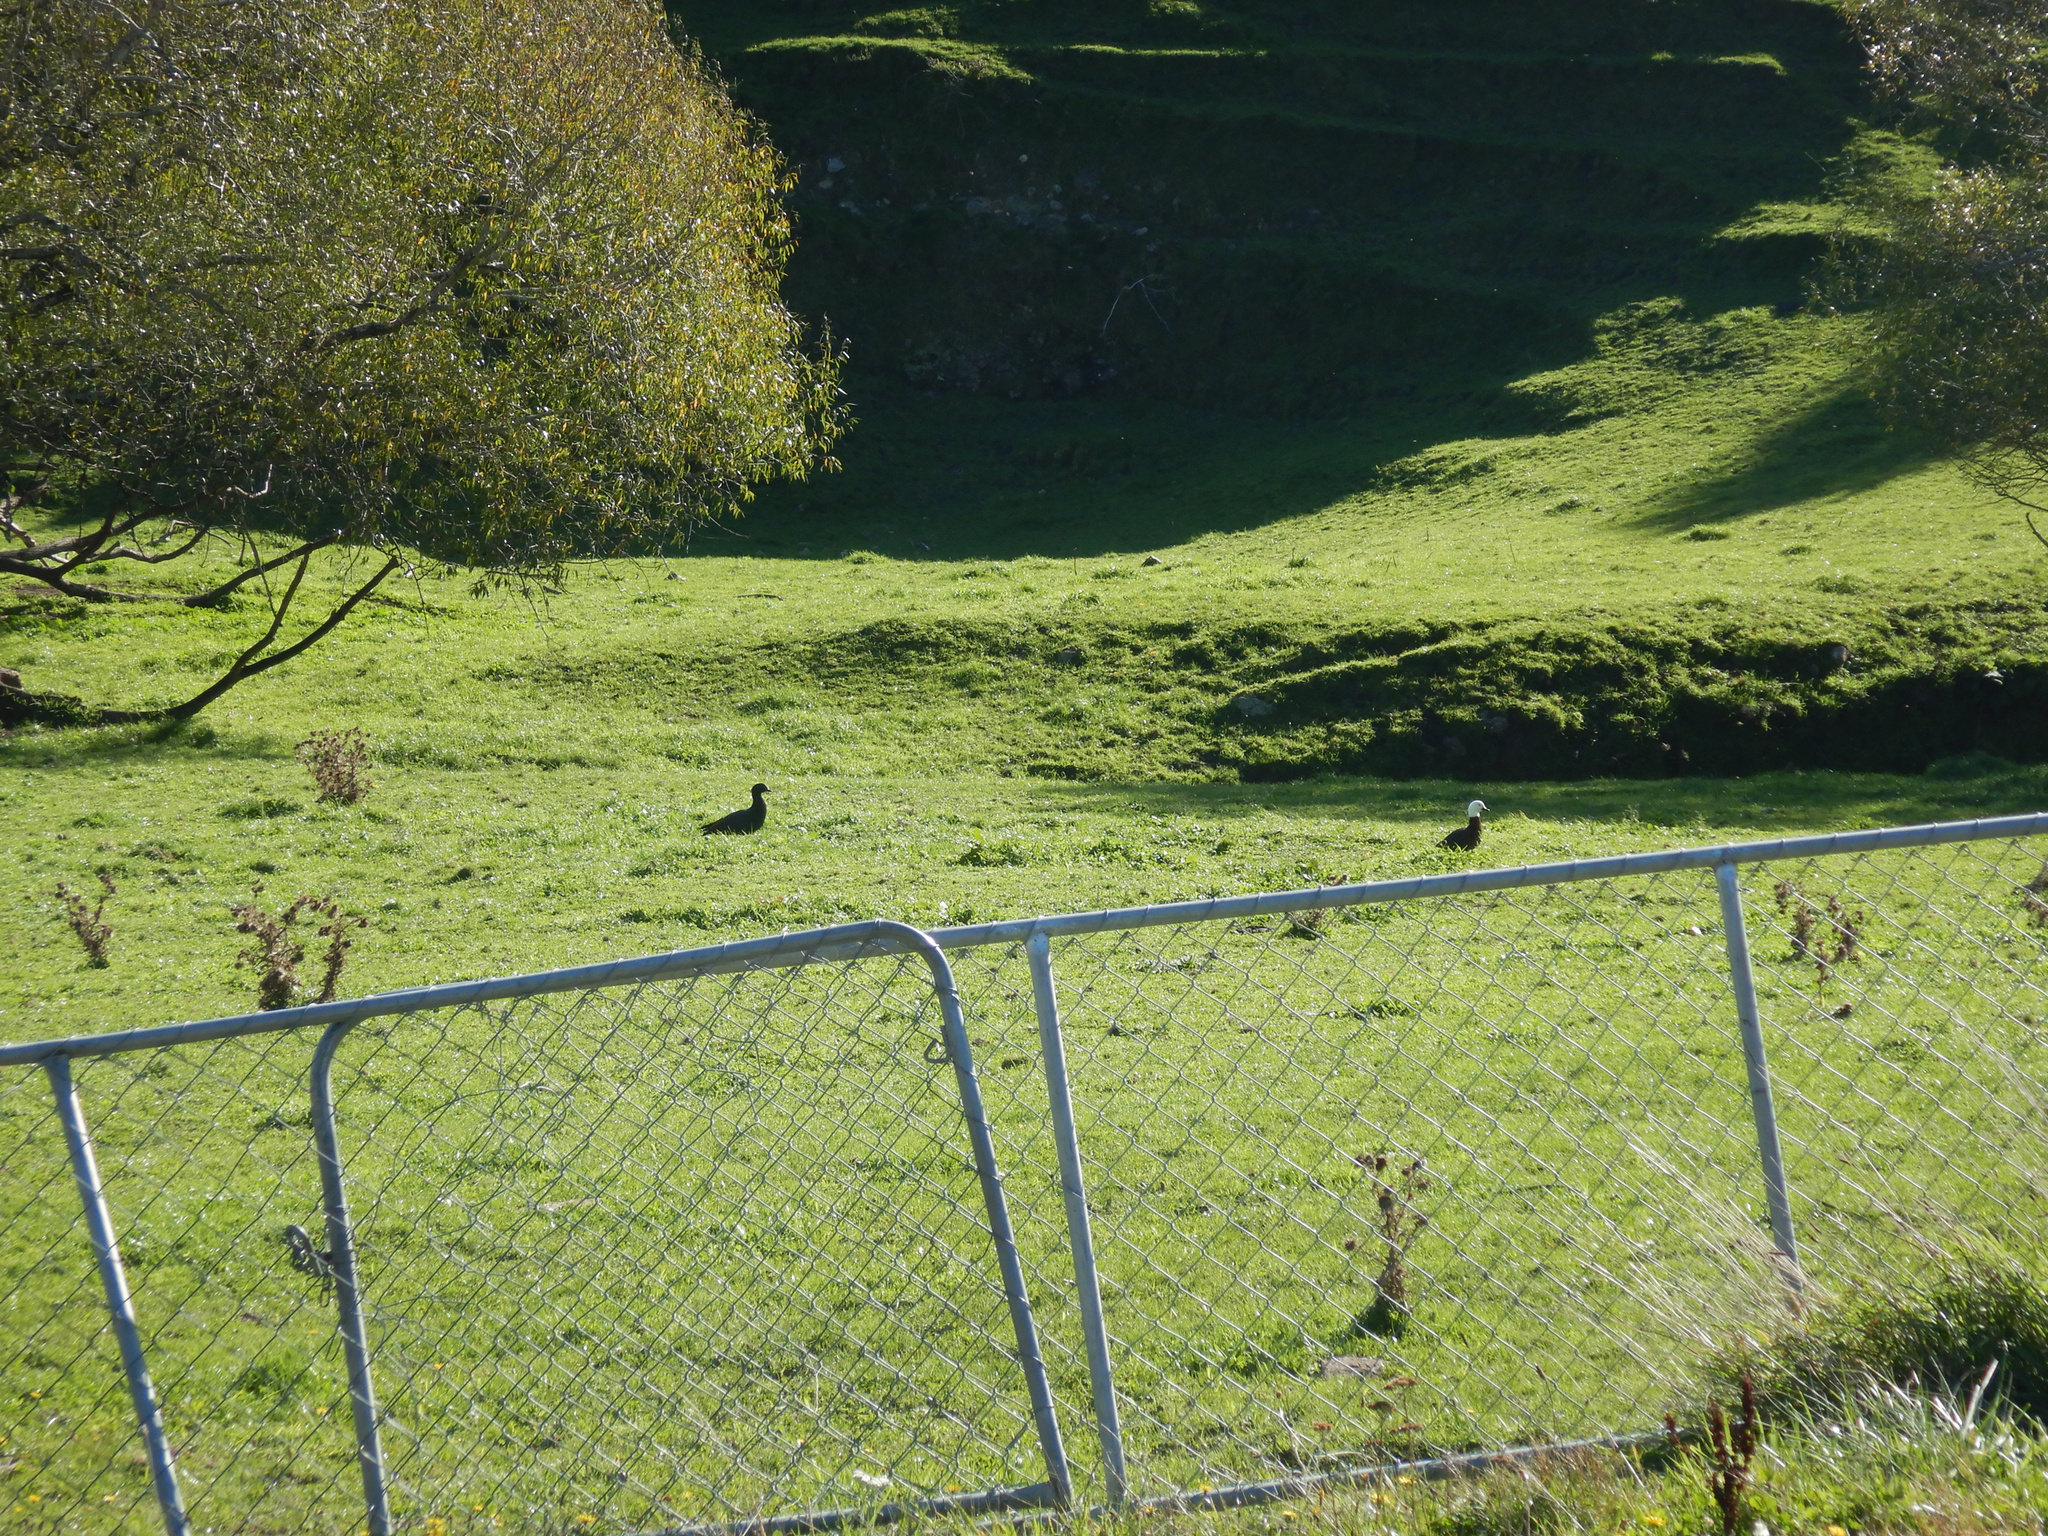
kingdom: Animalia
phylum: Chordata
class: Aves
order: Anseriformes
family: Anatidae
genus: Tadorna
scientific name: Tadorna variegata
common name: Paradise shelduck
